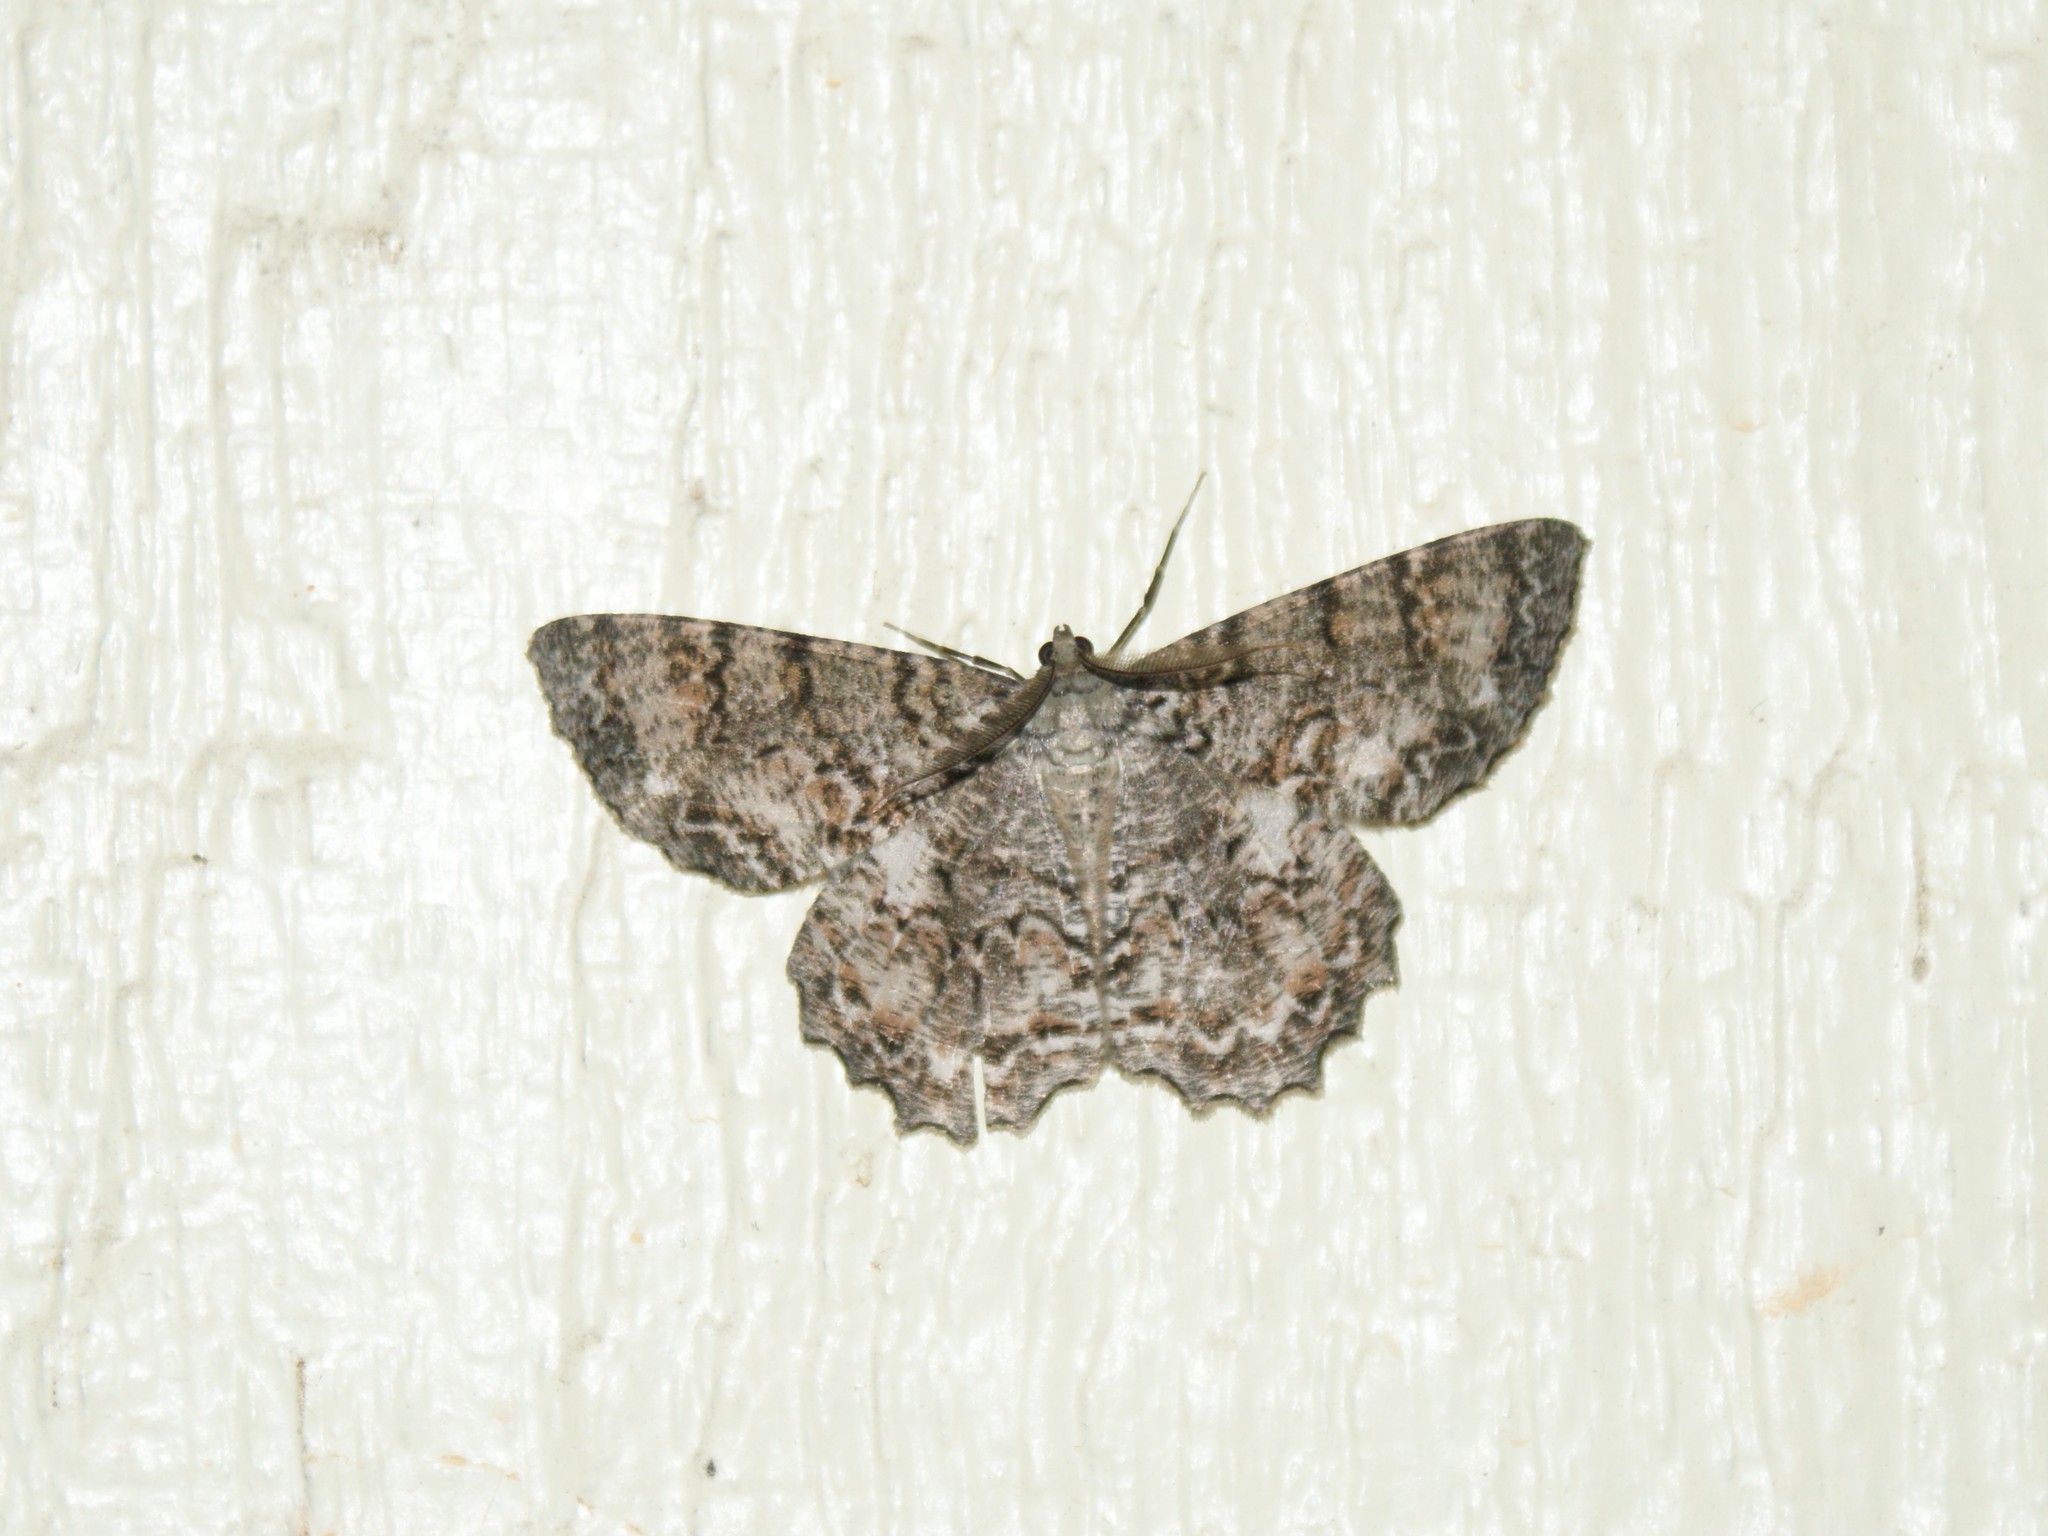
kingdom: Animalia
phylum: Arthropoda
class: Insecta
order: Lepidoptera
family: Geometridae
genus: Epimecis
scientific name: Epimecis hortaria
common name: Tulip-tree beauty
